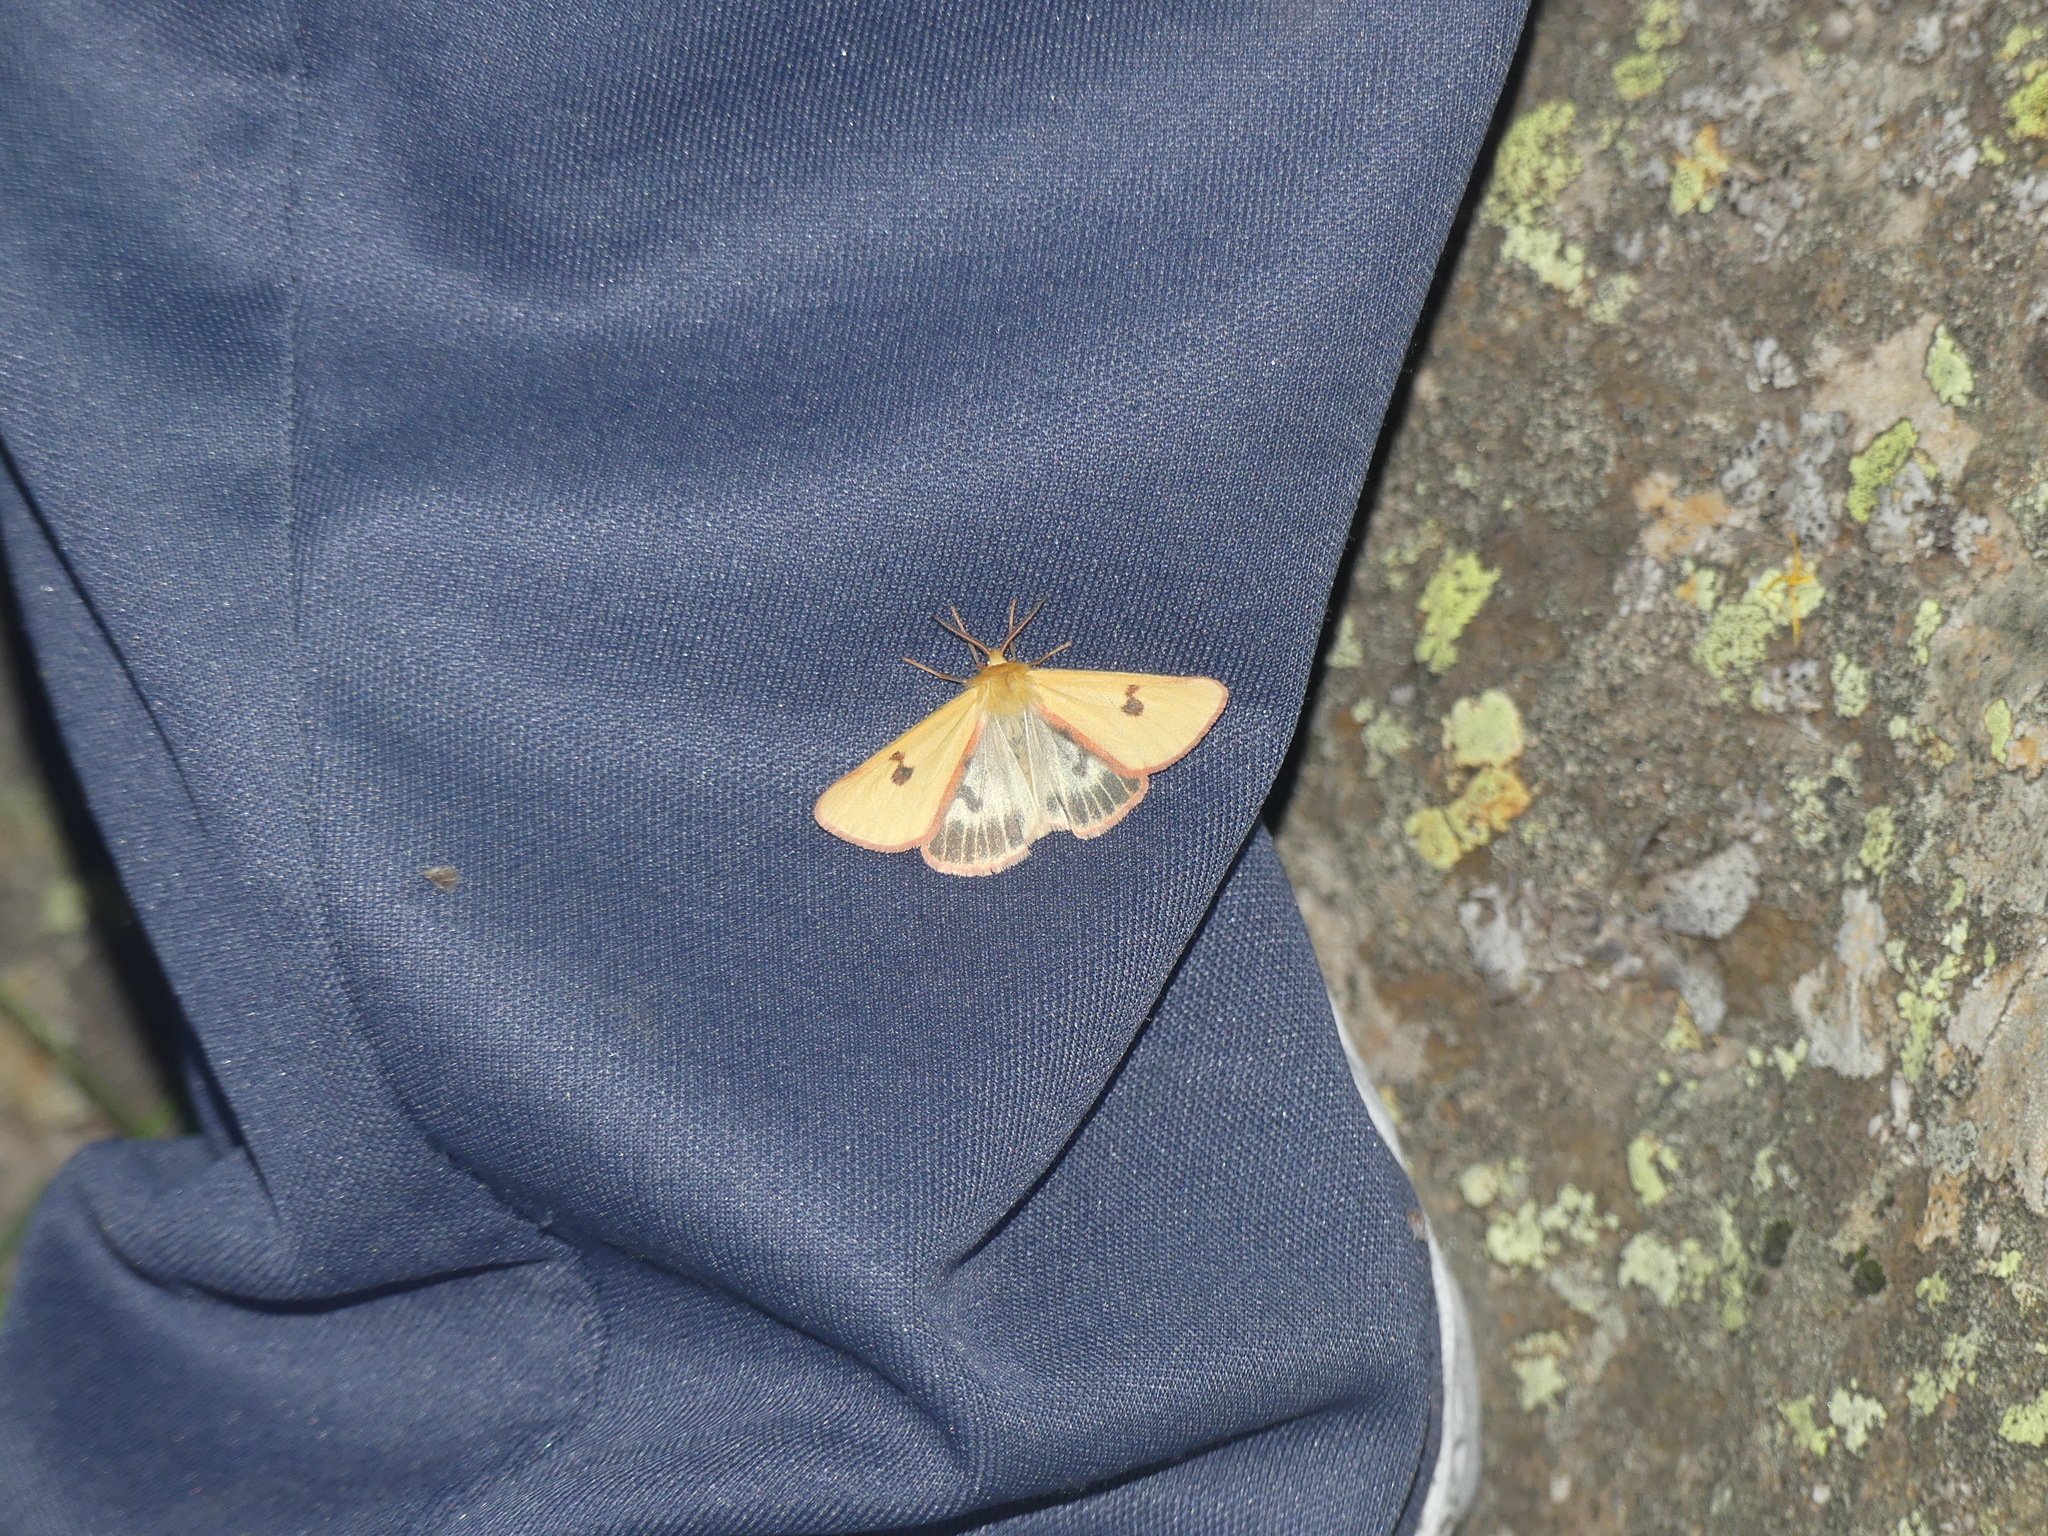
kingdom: Animalia
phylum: Arthropoda
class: Insecta
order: Lepidoptera
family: Erebidae
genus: Diacrisia
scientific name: Diacrisia sannio
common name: Clouded buff
